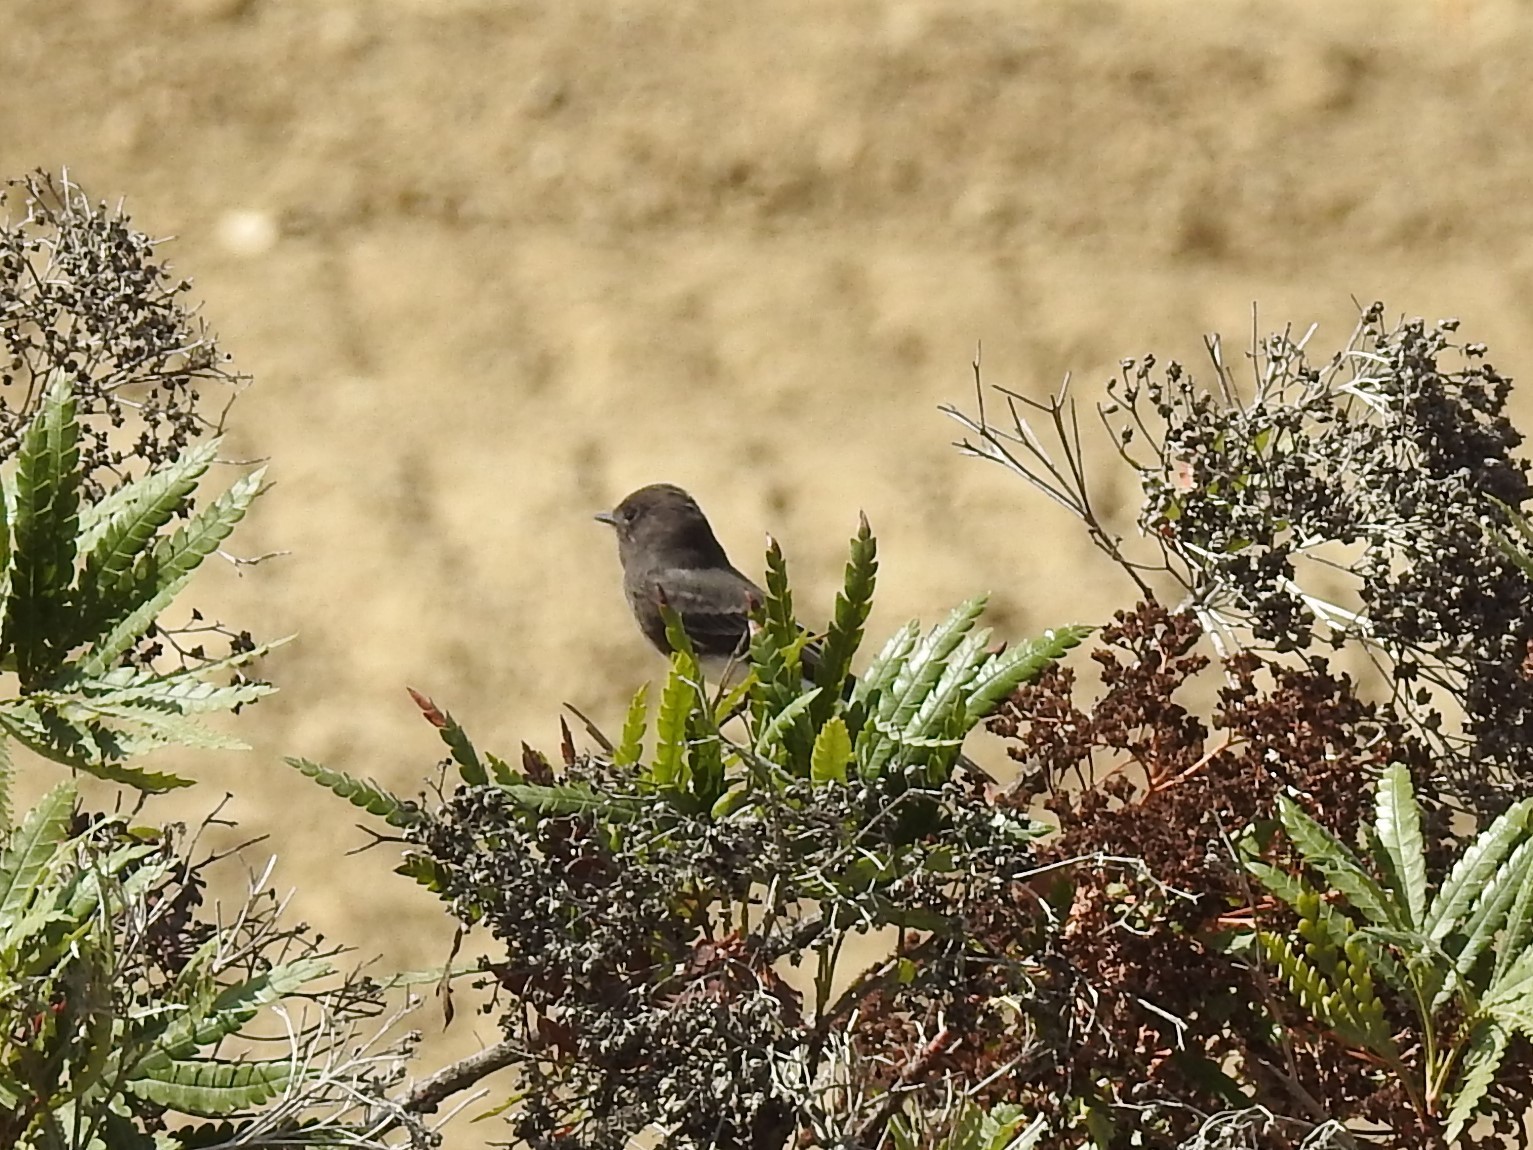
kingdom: Animalia
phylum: Chordata
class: Aves
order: Passeriformes
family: Tyrannidae
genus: Sayornis
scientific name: Sayornis nigricans
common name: Black phoebe
